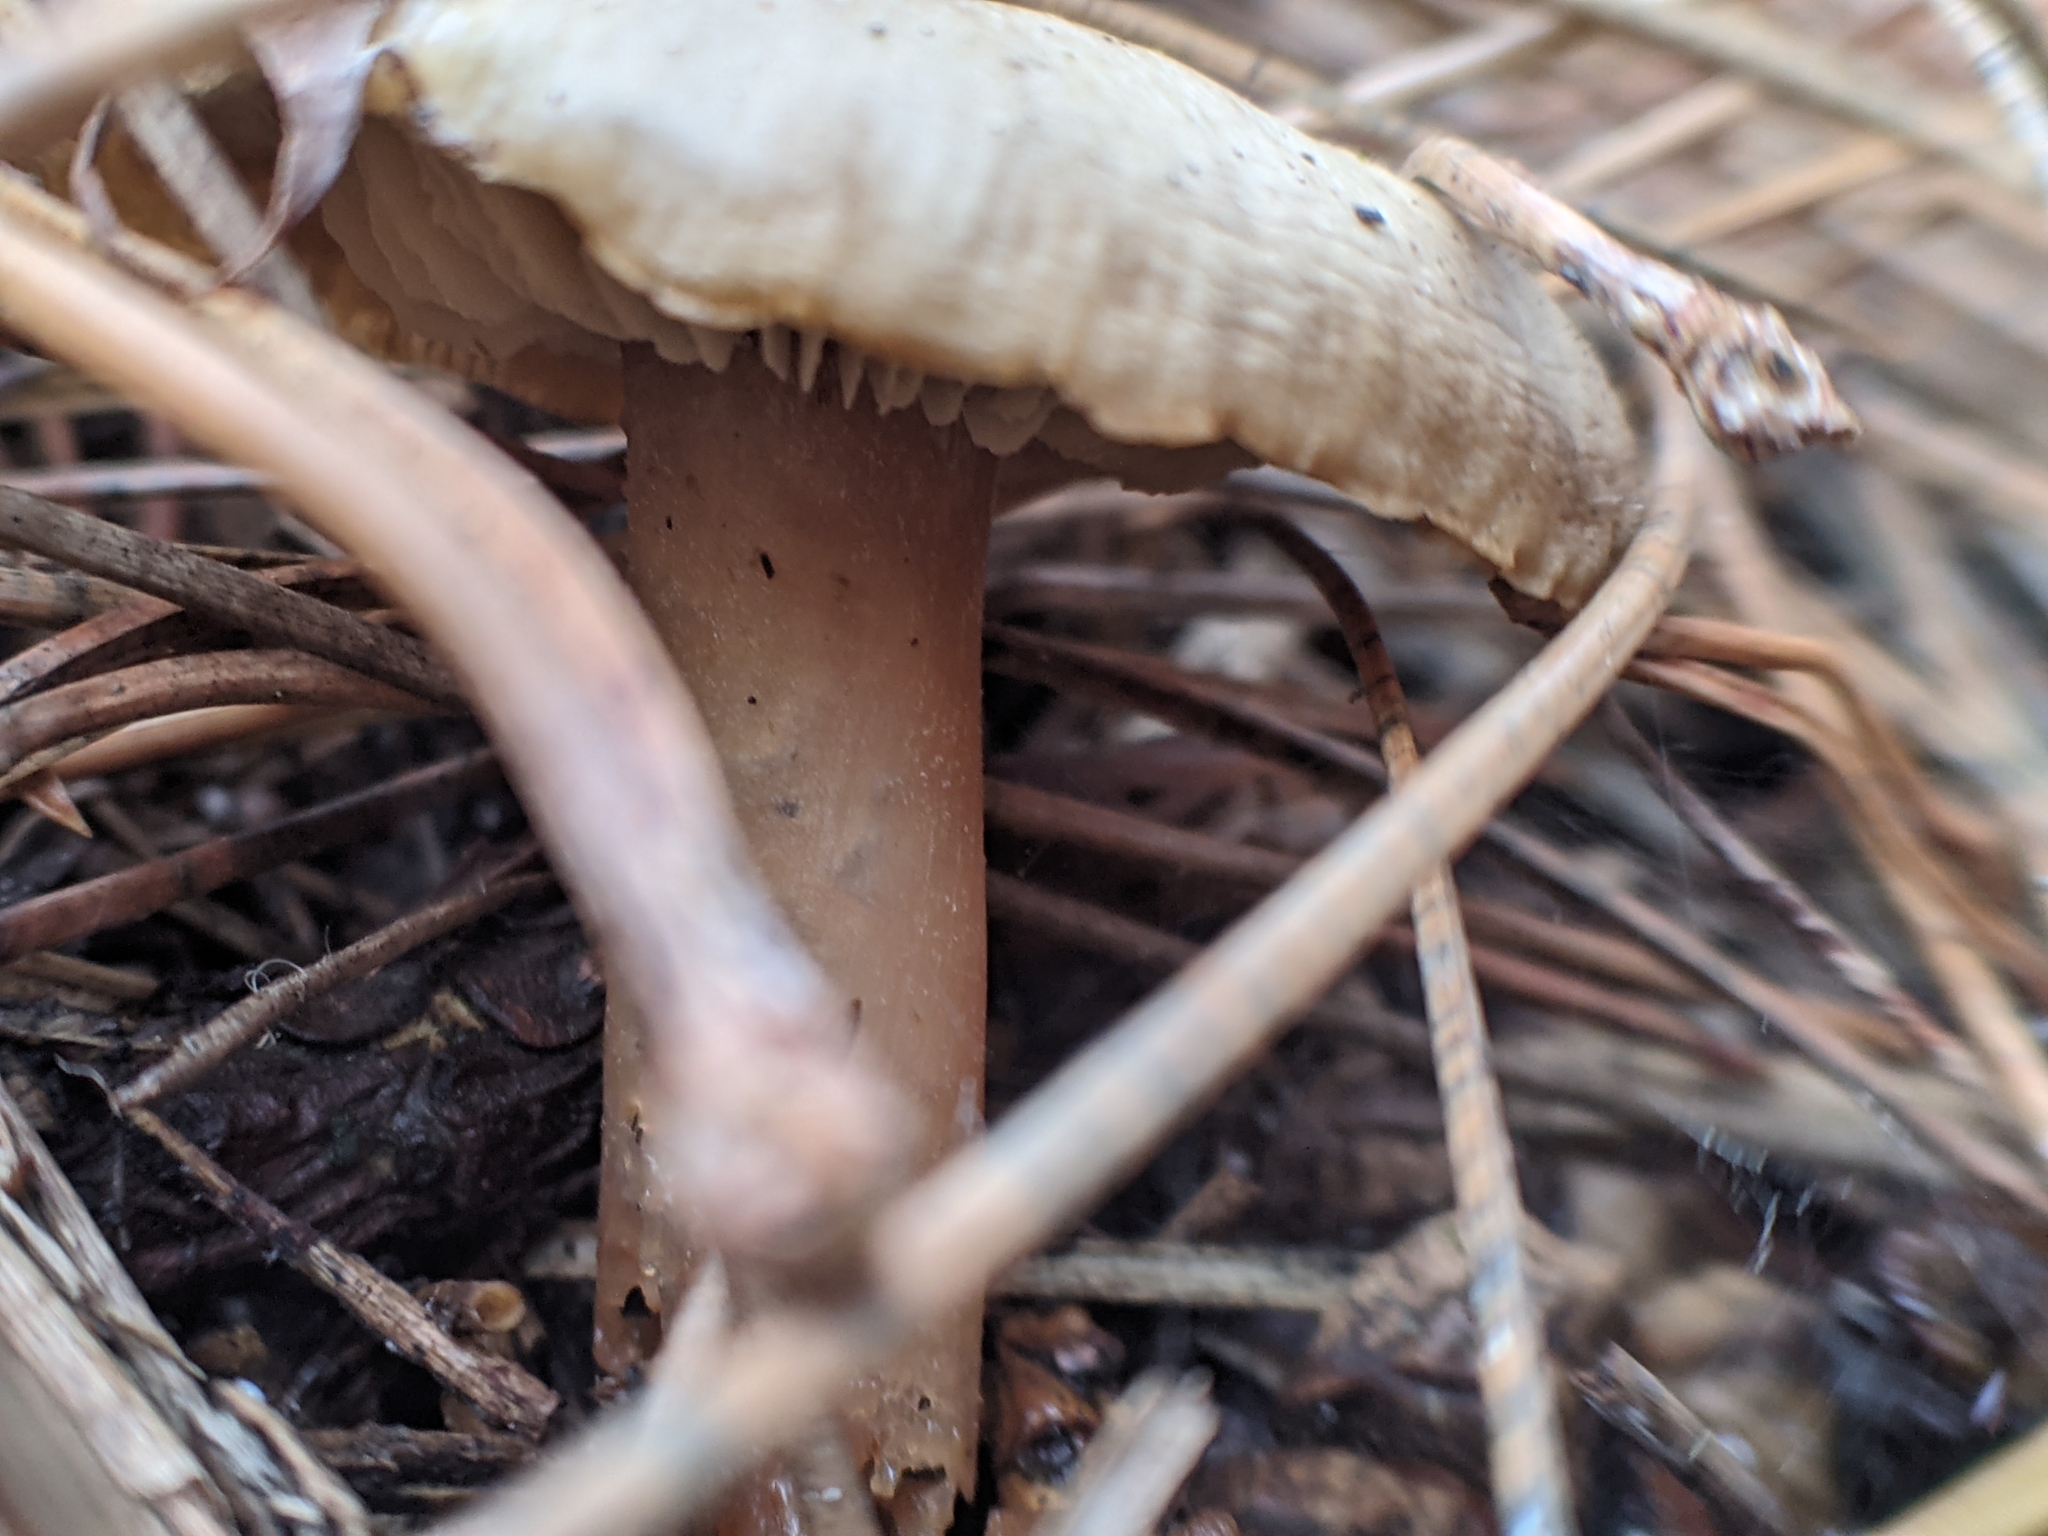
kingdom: Fungi
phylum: Basidiomycota
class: Agaricomycetes
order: Agaricales
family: Omphalotaceae
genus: Rhodocollybia
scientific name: Rhodocollybia butyracea
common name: Butter cap
